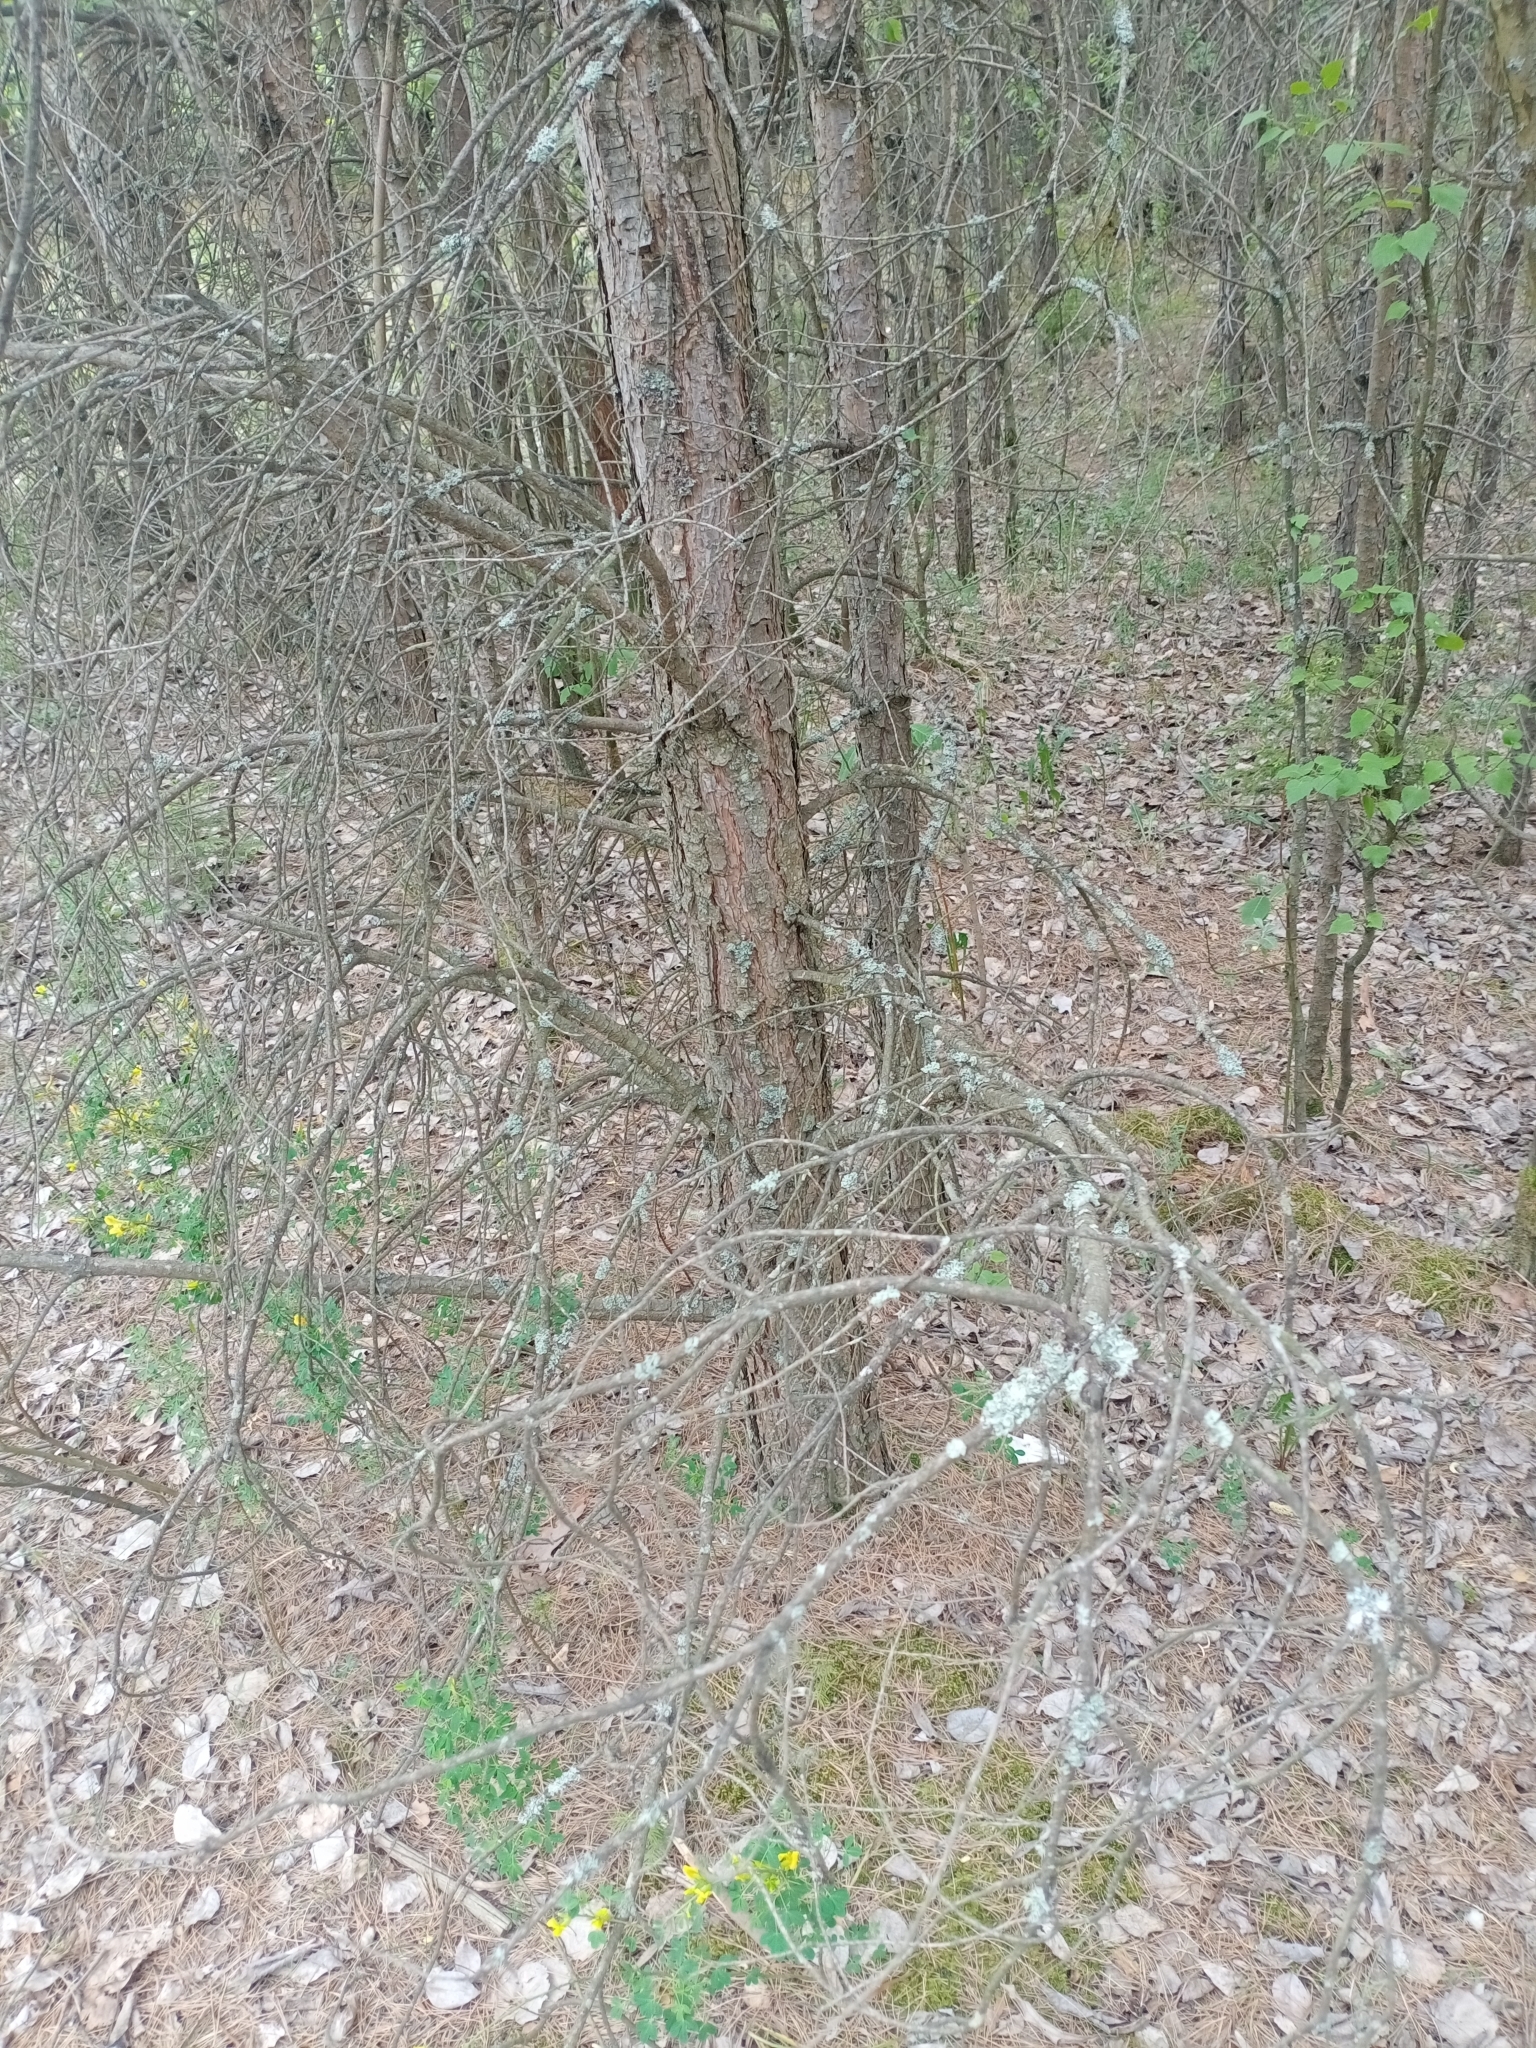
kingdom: Fungi
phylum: Ascomycota
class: Lecanoromycetes
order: Lecanorales
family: Parmeliaceae
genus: Hypogymnia
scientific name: Hypogymnia physodes
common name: Dark crottle
